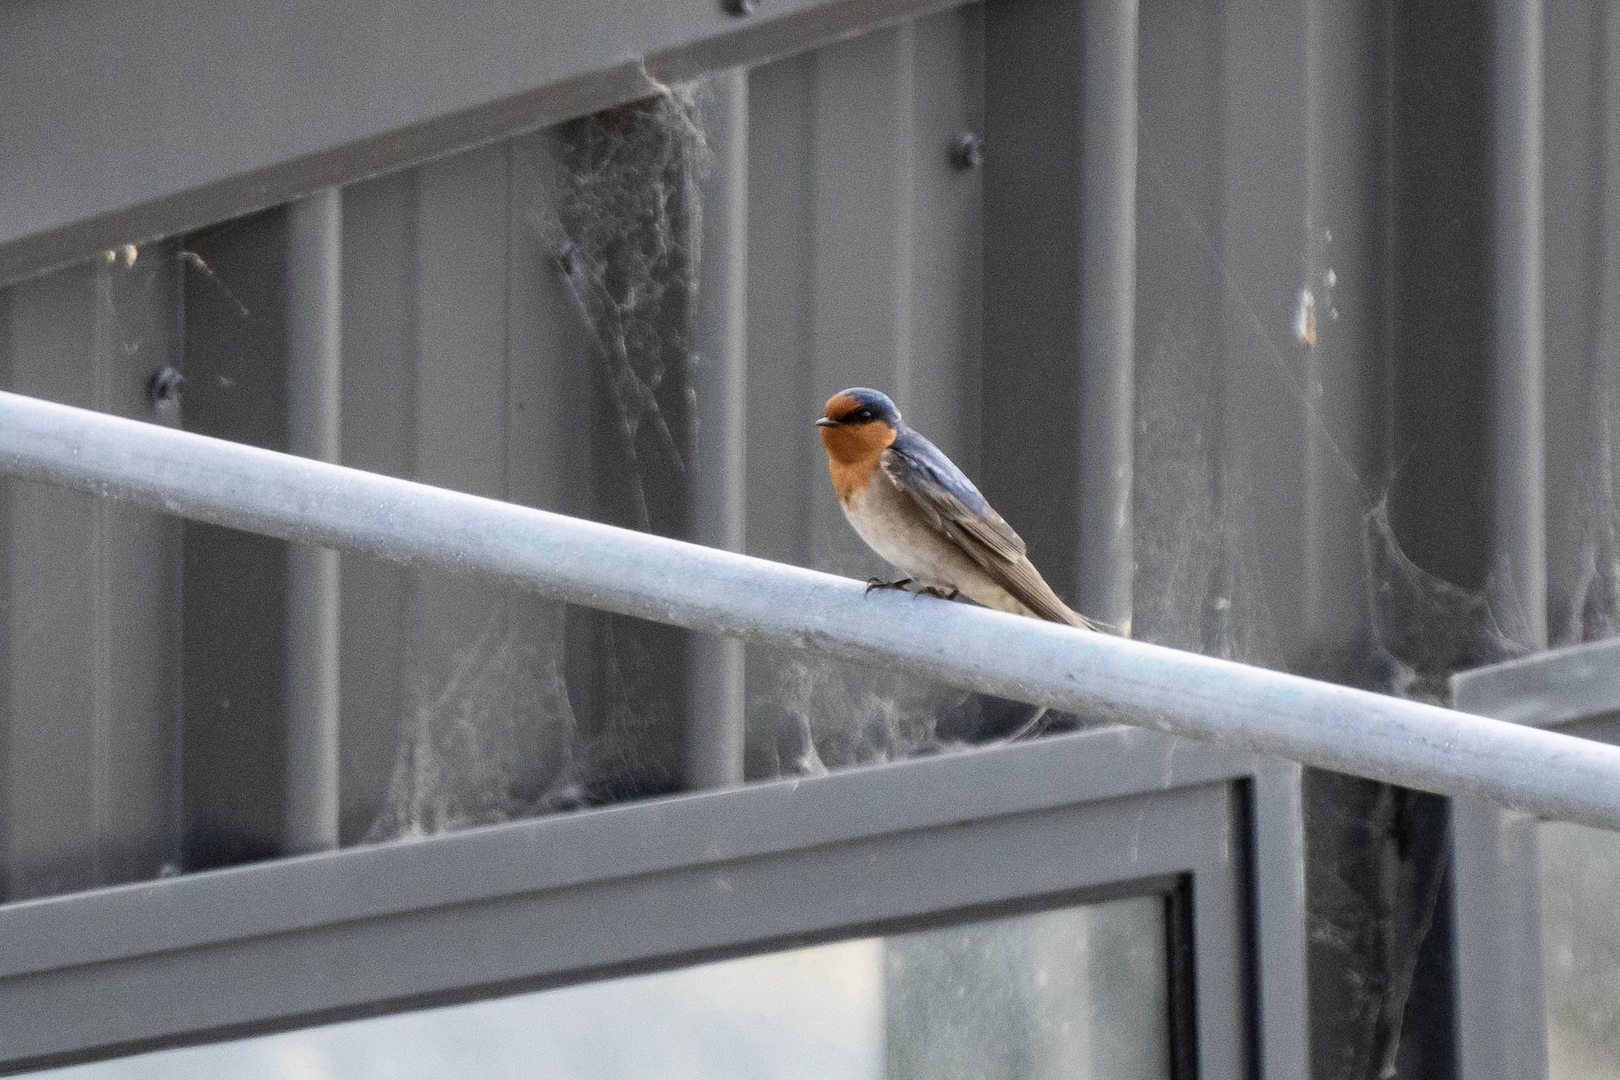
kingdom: Animalia
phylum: Chordata
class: Aves
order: Passeriformes
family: Hirundinidae
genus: Hirundo
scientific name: Hirundo neoxena
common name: Welcome swallow
